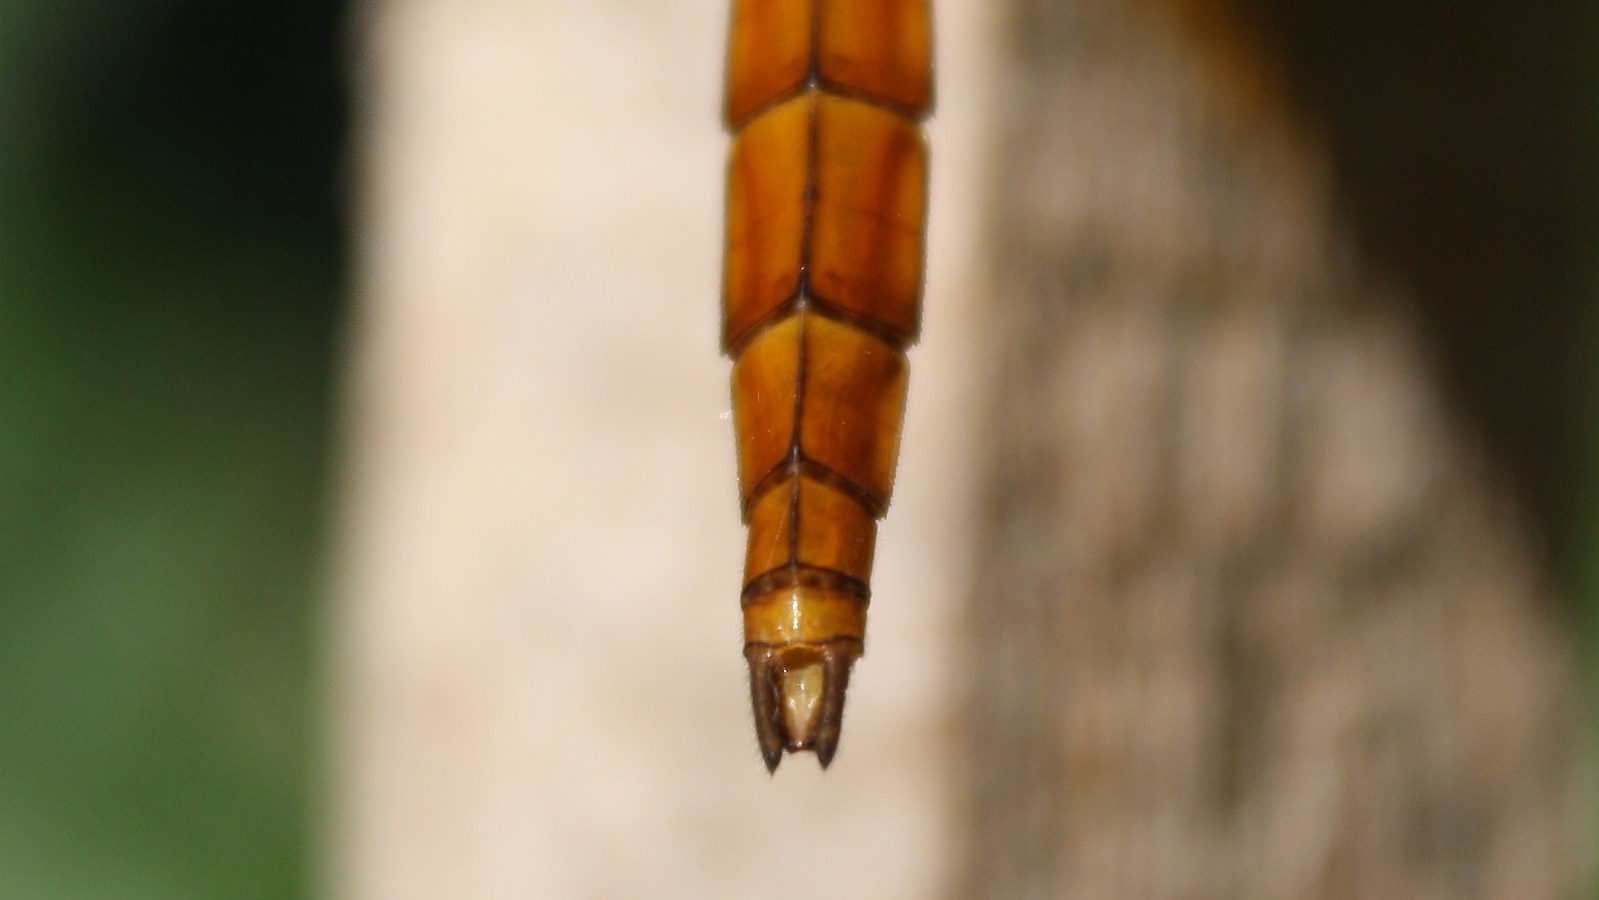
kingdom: Animalia
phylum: Arthropoda
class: Insecta
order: Odonata
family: Libellulidae
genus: Orthetrum
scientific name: Orthetrum villosovittatum
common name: Firery skimmer
